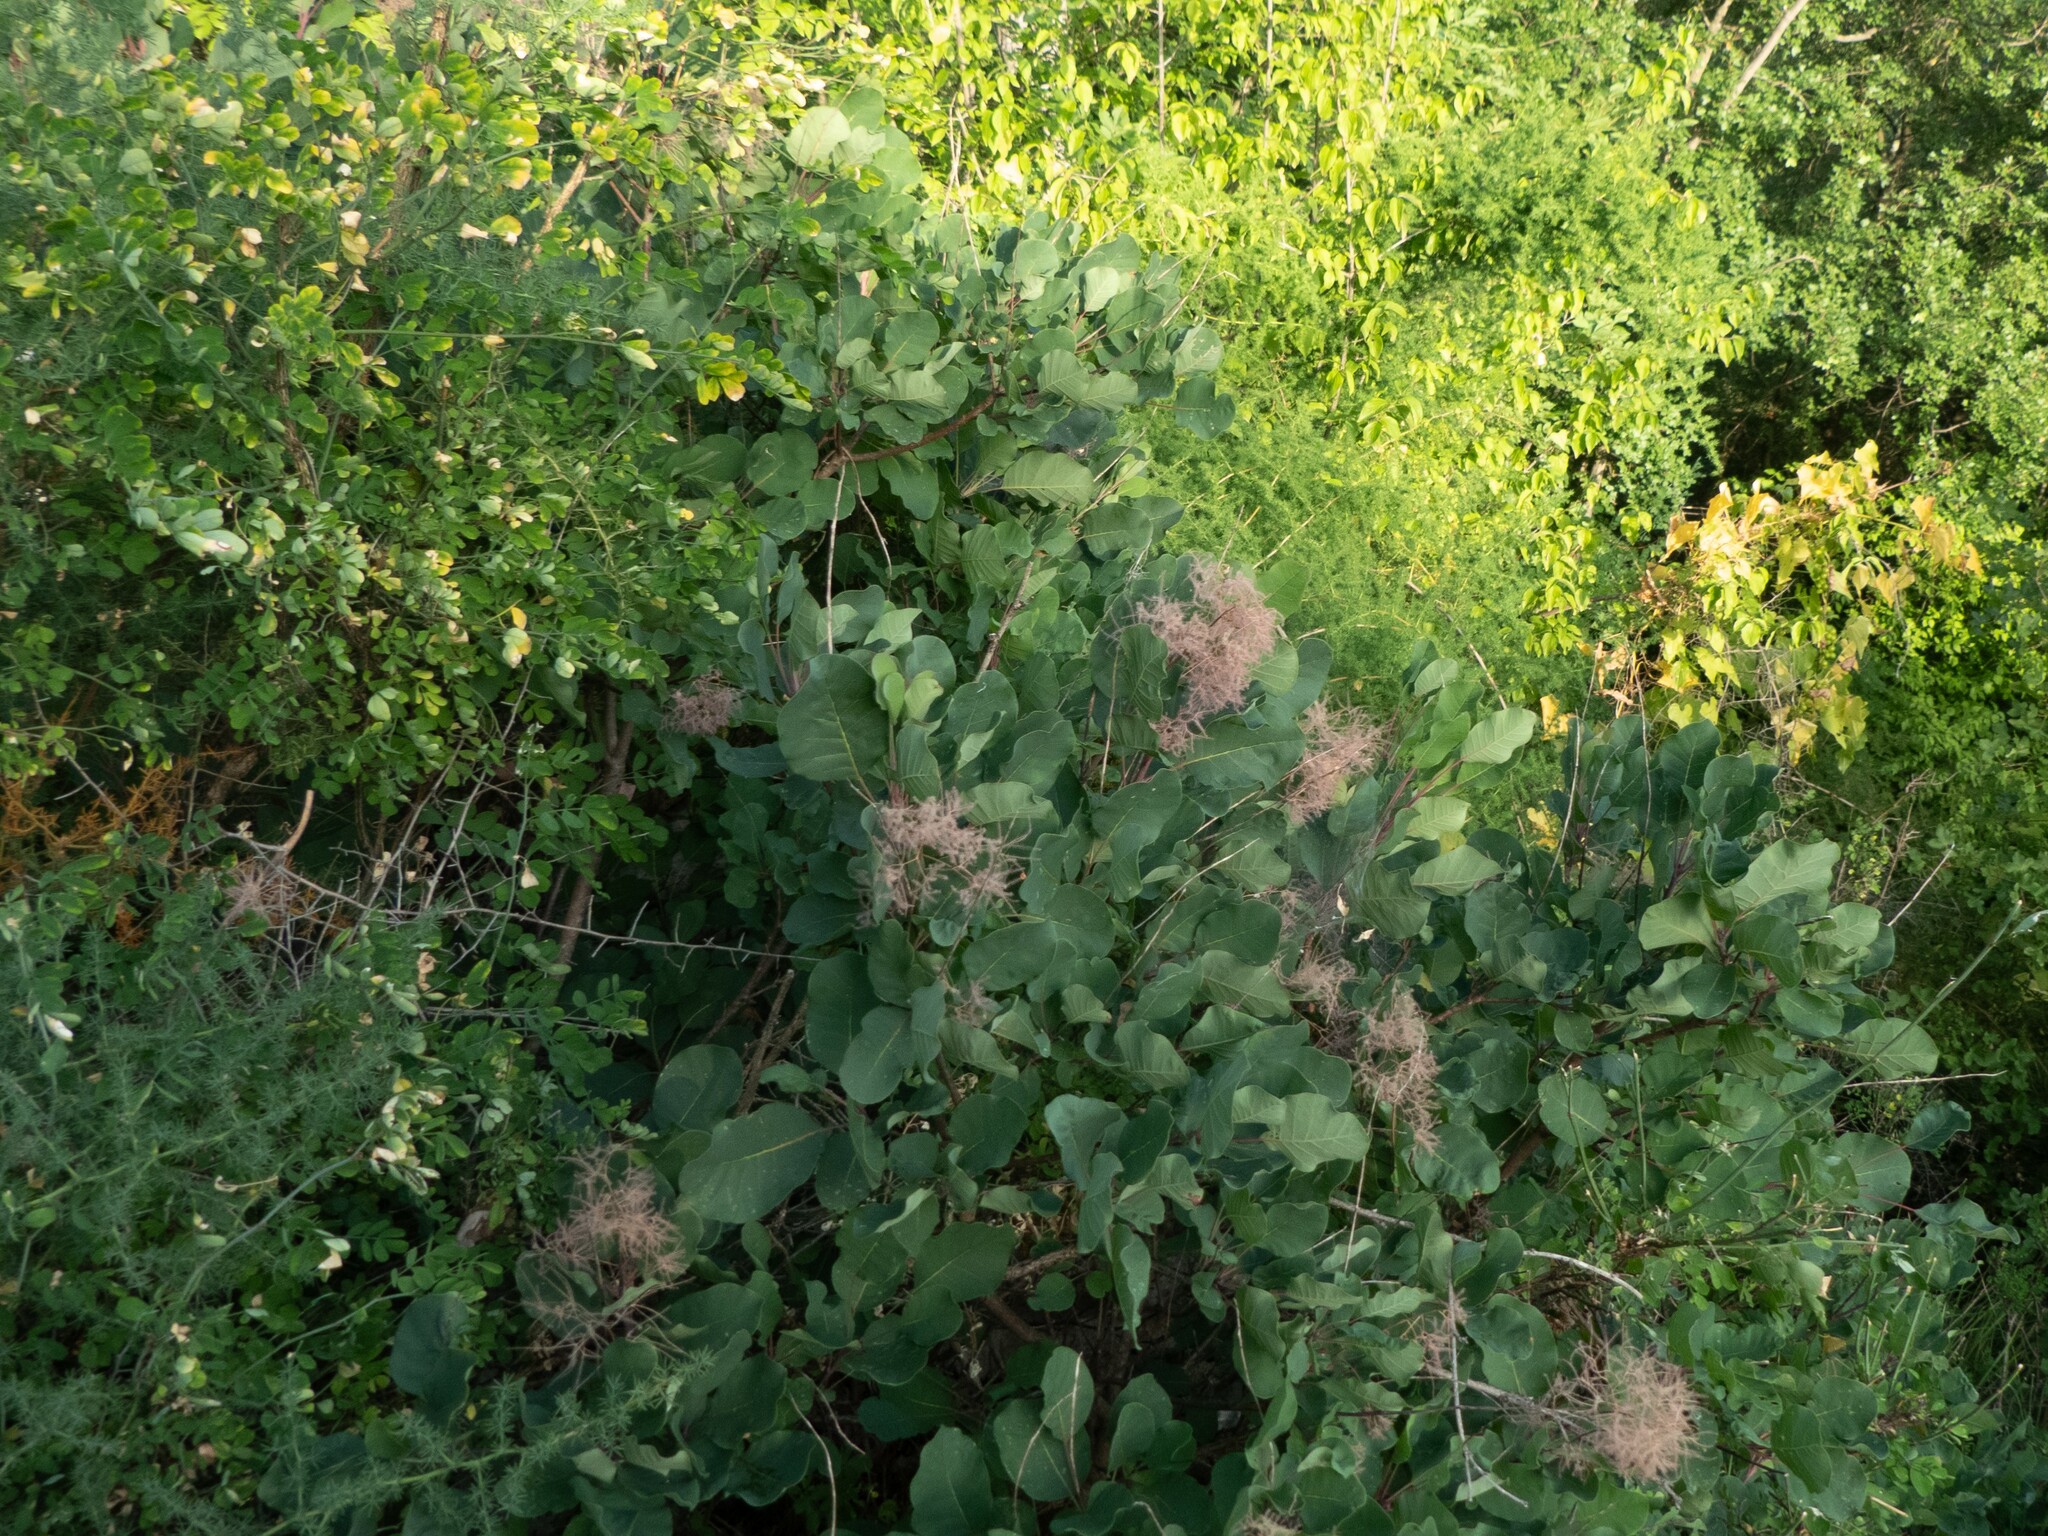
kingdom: Plantae
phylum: Tracheophyta
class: Magnoliopsida
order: Sapindales
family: Anacardiaceae
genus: Cotinus
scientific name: Cotinus coggygria
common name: Smoke-tree
